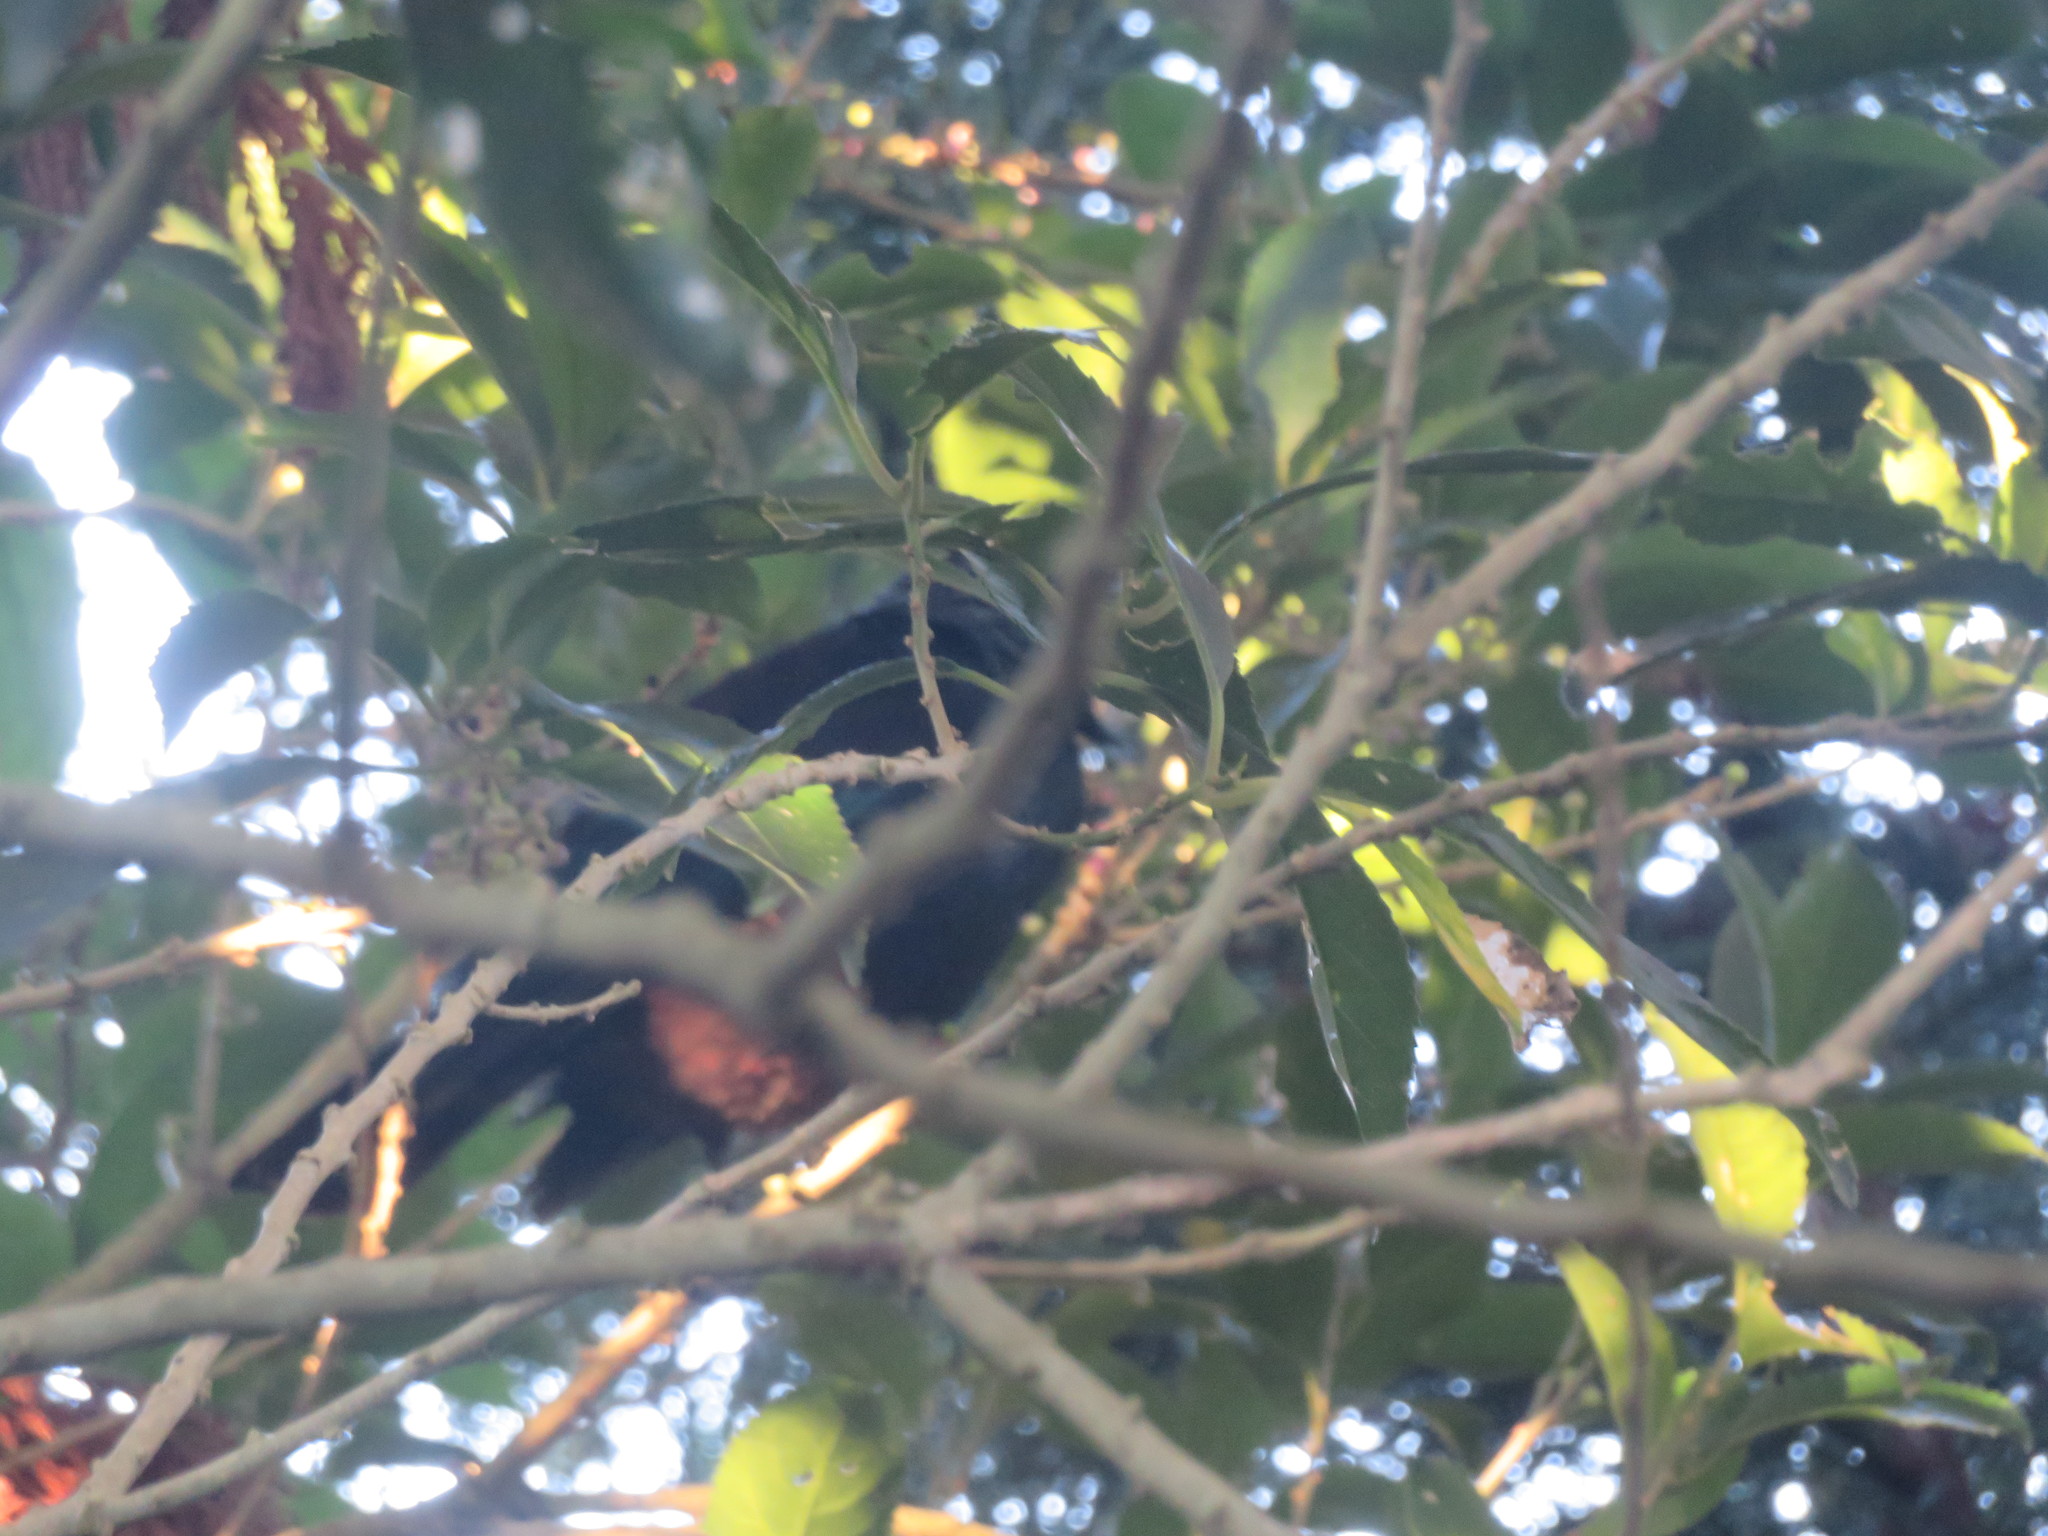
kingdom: Animalia
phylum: Chordata
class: Aves
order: Passeriformes
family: Meliphagidae
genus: Prosthemadera
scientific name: Prosthemadera novaeseelandiae
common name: Tui
